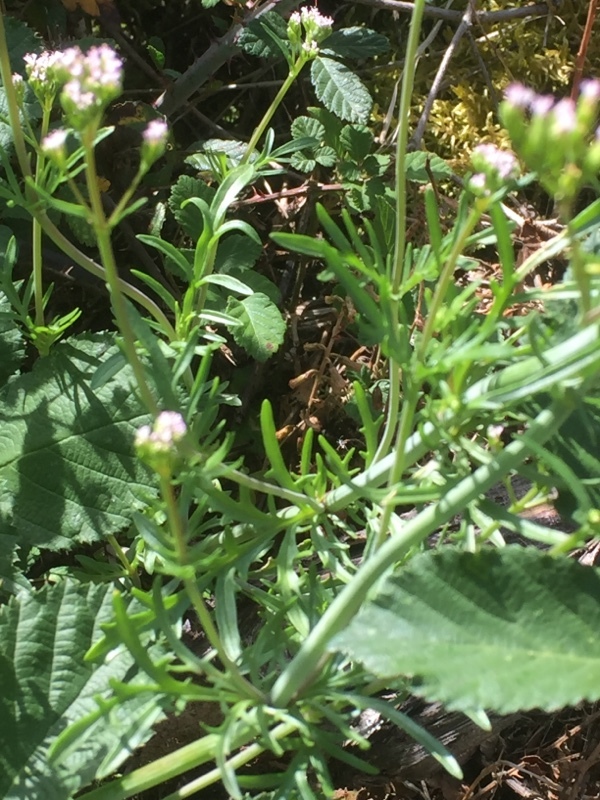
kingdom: Plantae
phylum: Tracheophyta
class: Magnoliopsida
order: Dipsacales
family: Caprifoliaceae
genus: Centranthus
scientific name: Centranthus calcitrapae
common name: Annual valerian
